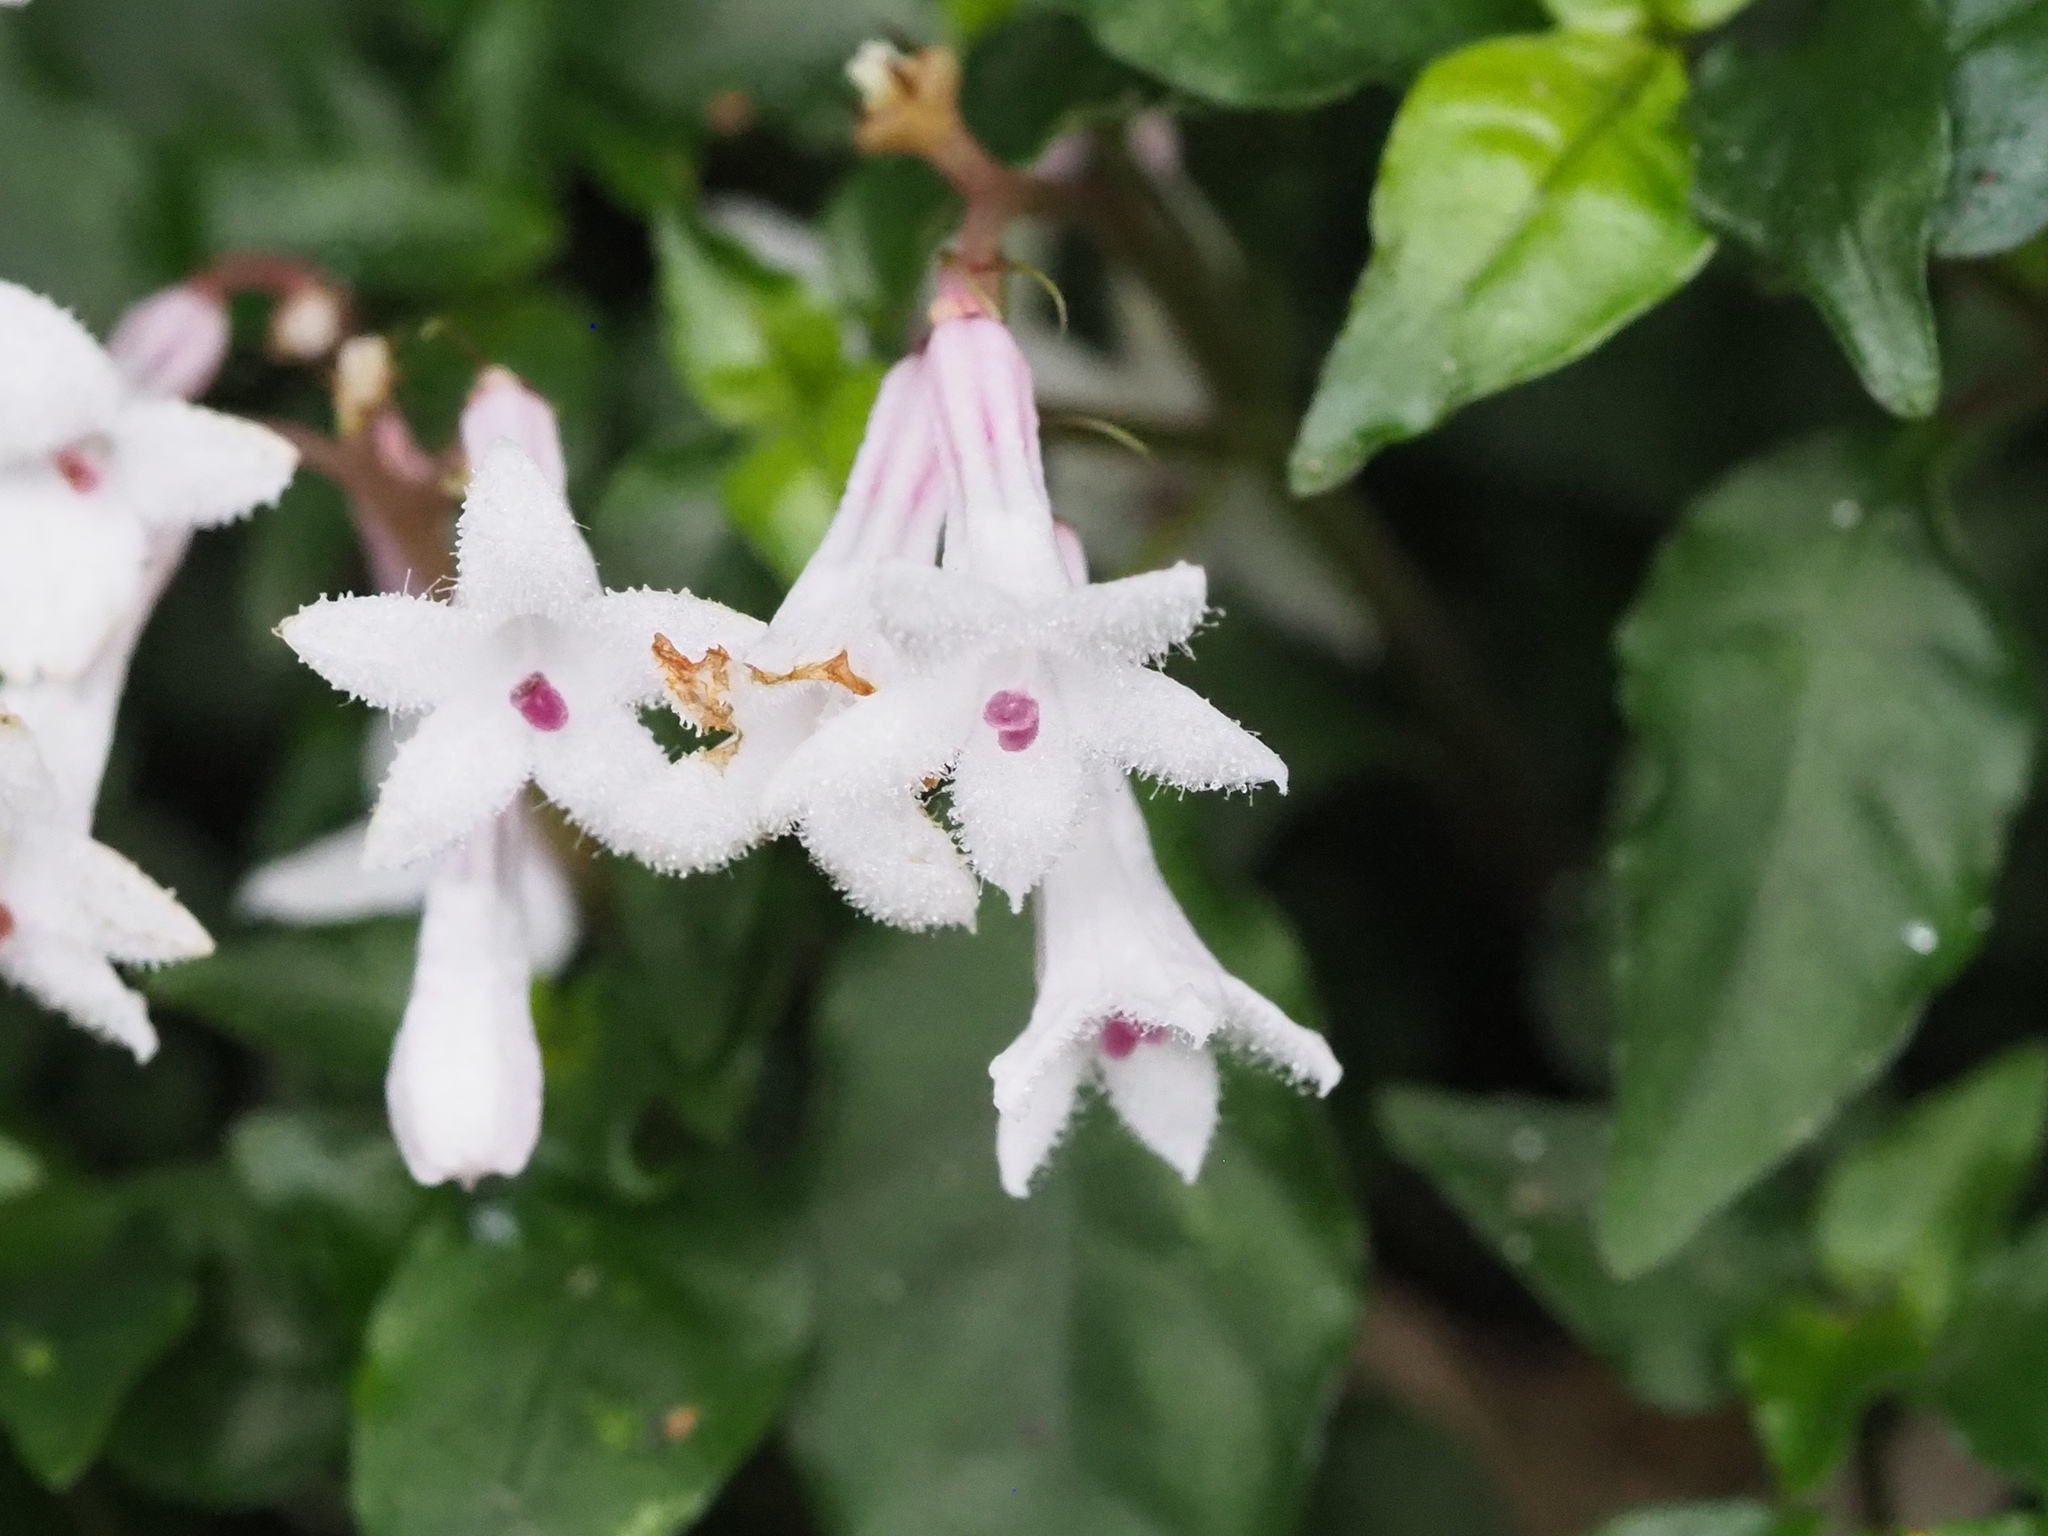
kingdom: Plantae
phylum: Tracheophyta
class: Magnoliopsida
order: Gentianales
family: Rubiaceae
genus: Ophiorrhiza
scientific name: Ophiorrhiza japonica
